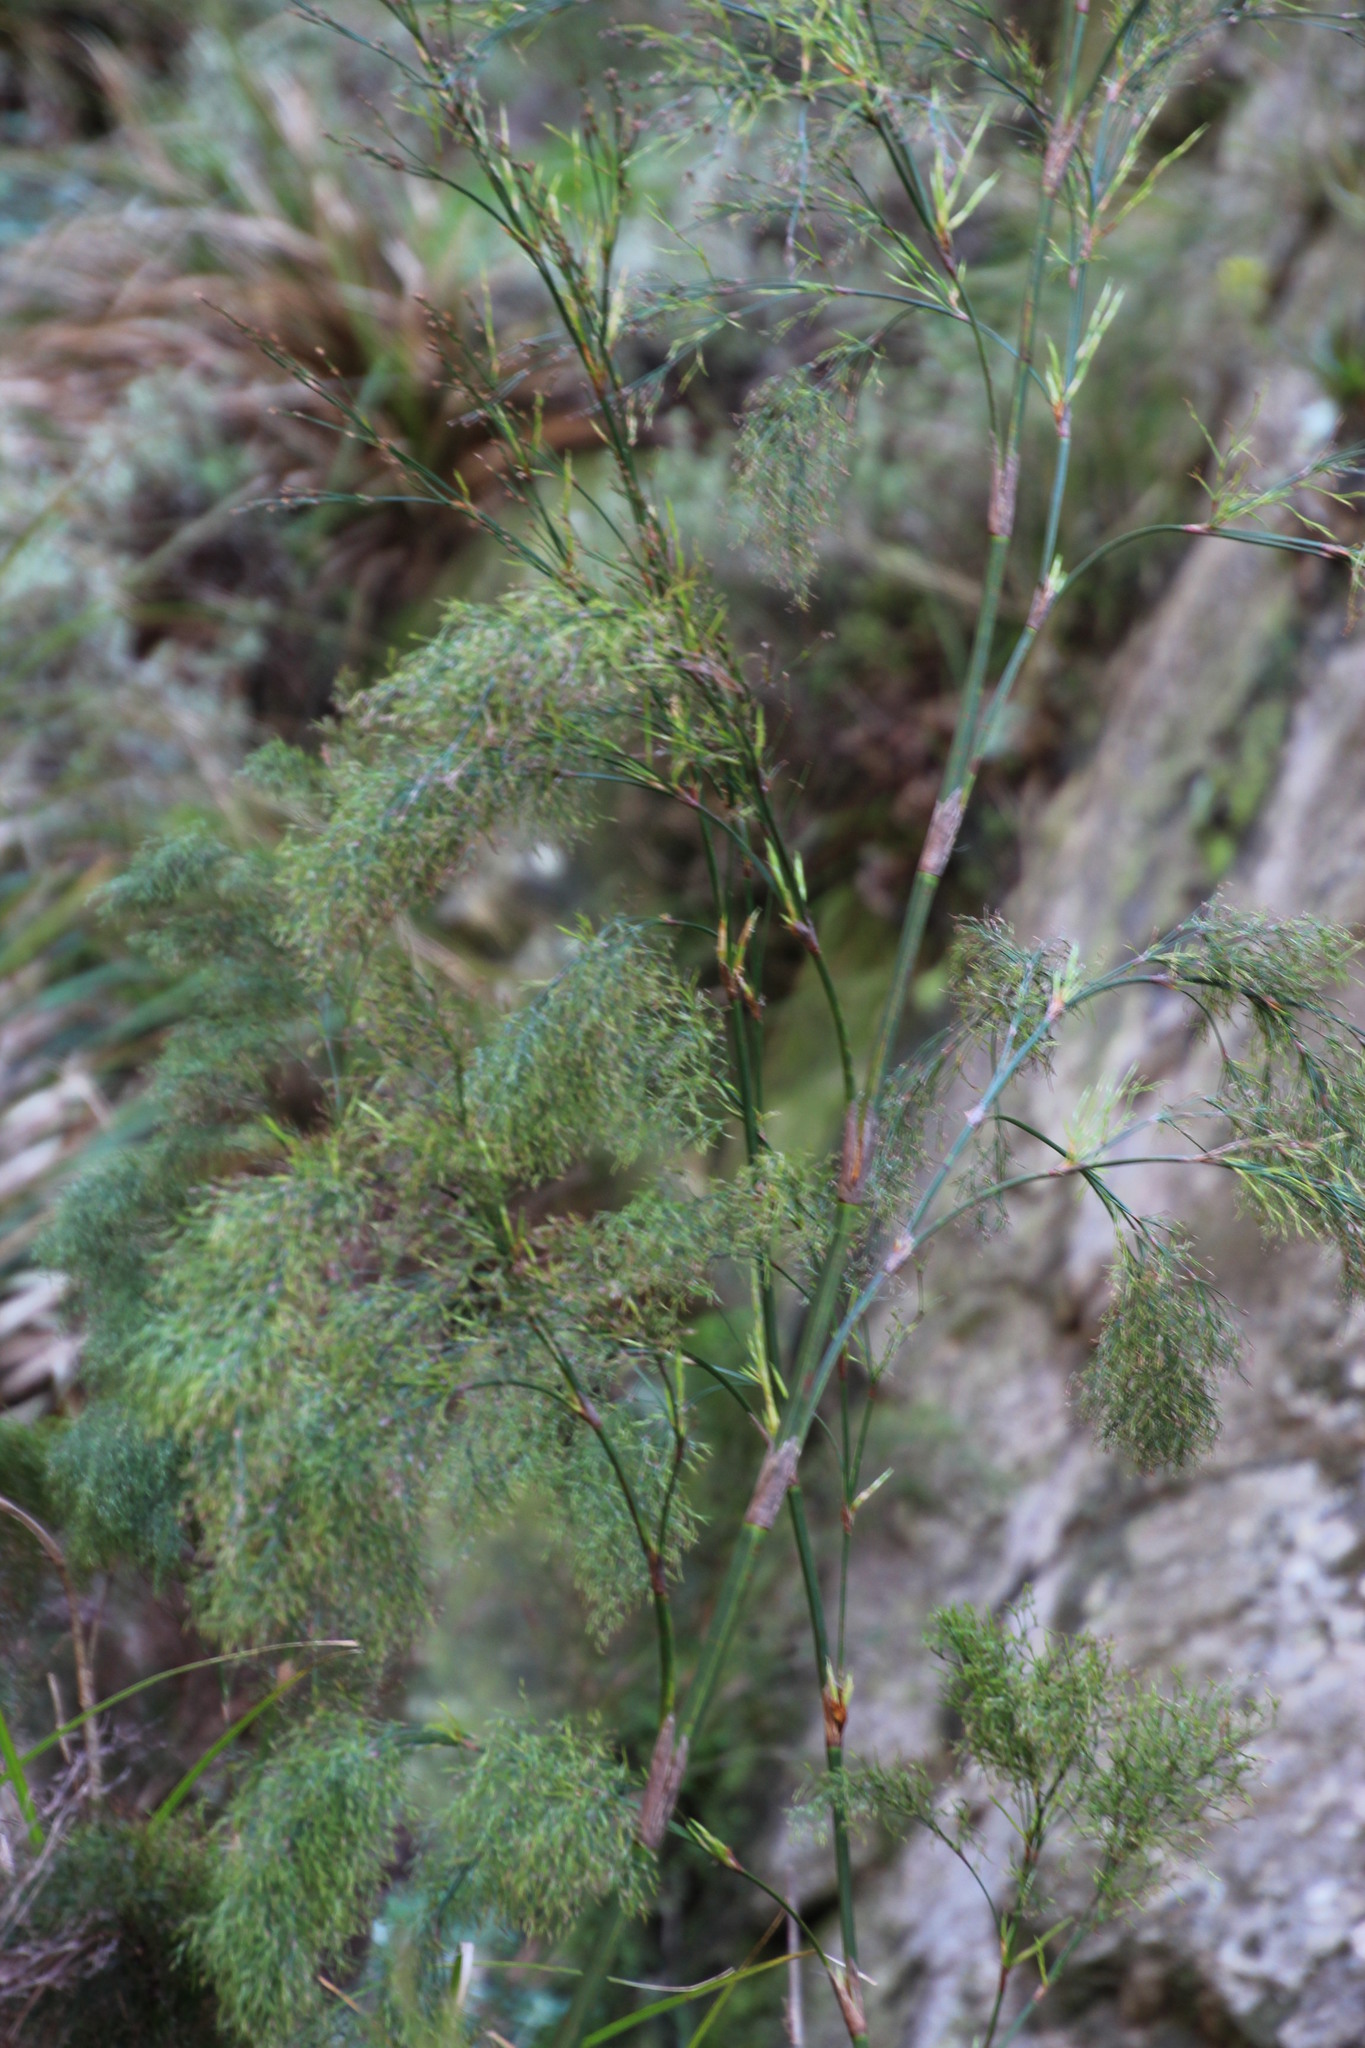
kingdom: Plantae
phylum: Tracheophyta
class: Liliopsida
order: Poales
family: Restionaceae
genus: Restio
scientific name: Restio quadratus
